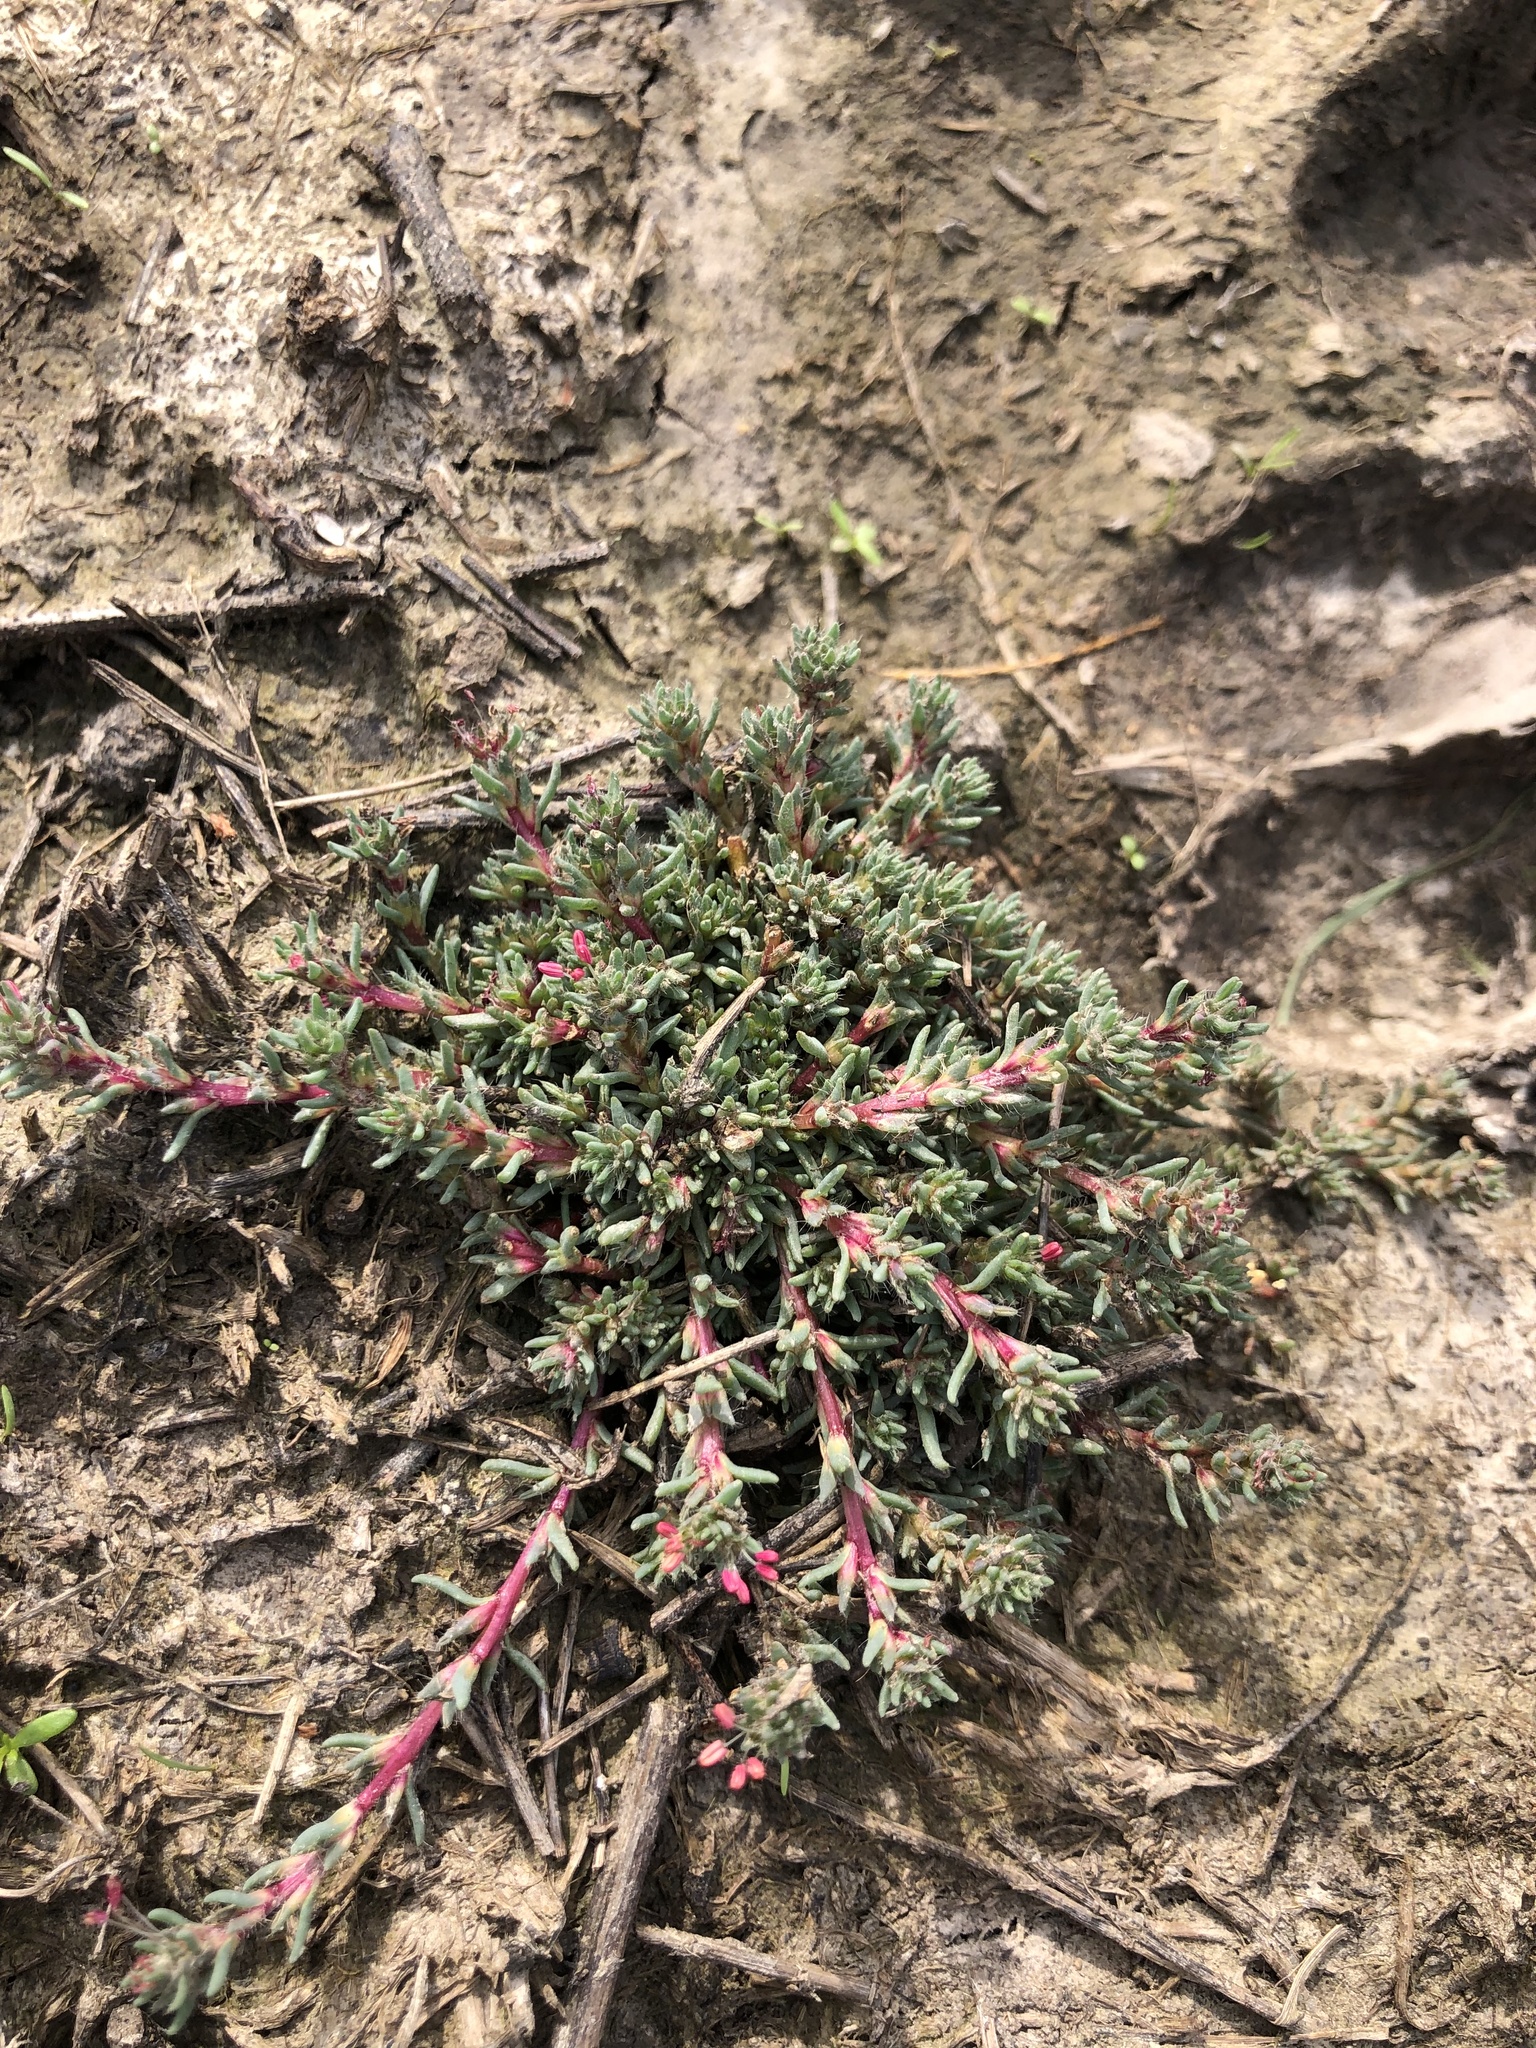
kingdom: Plantae
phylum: Tracheophyta
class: Magnoliopsida
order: Caryophyllales
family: Amaranthaceae
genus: Camphorosma
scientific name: Camphorosma annua
